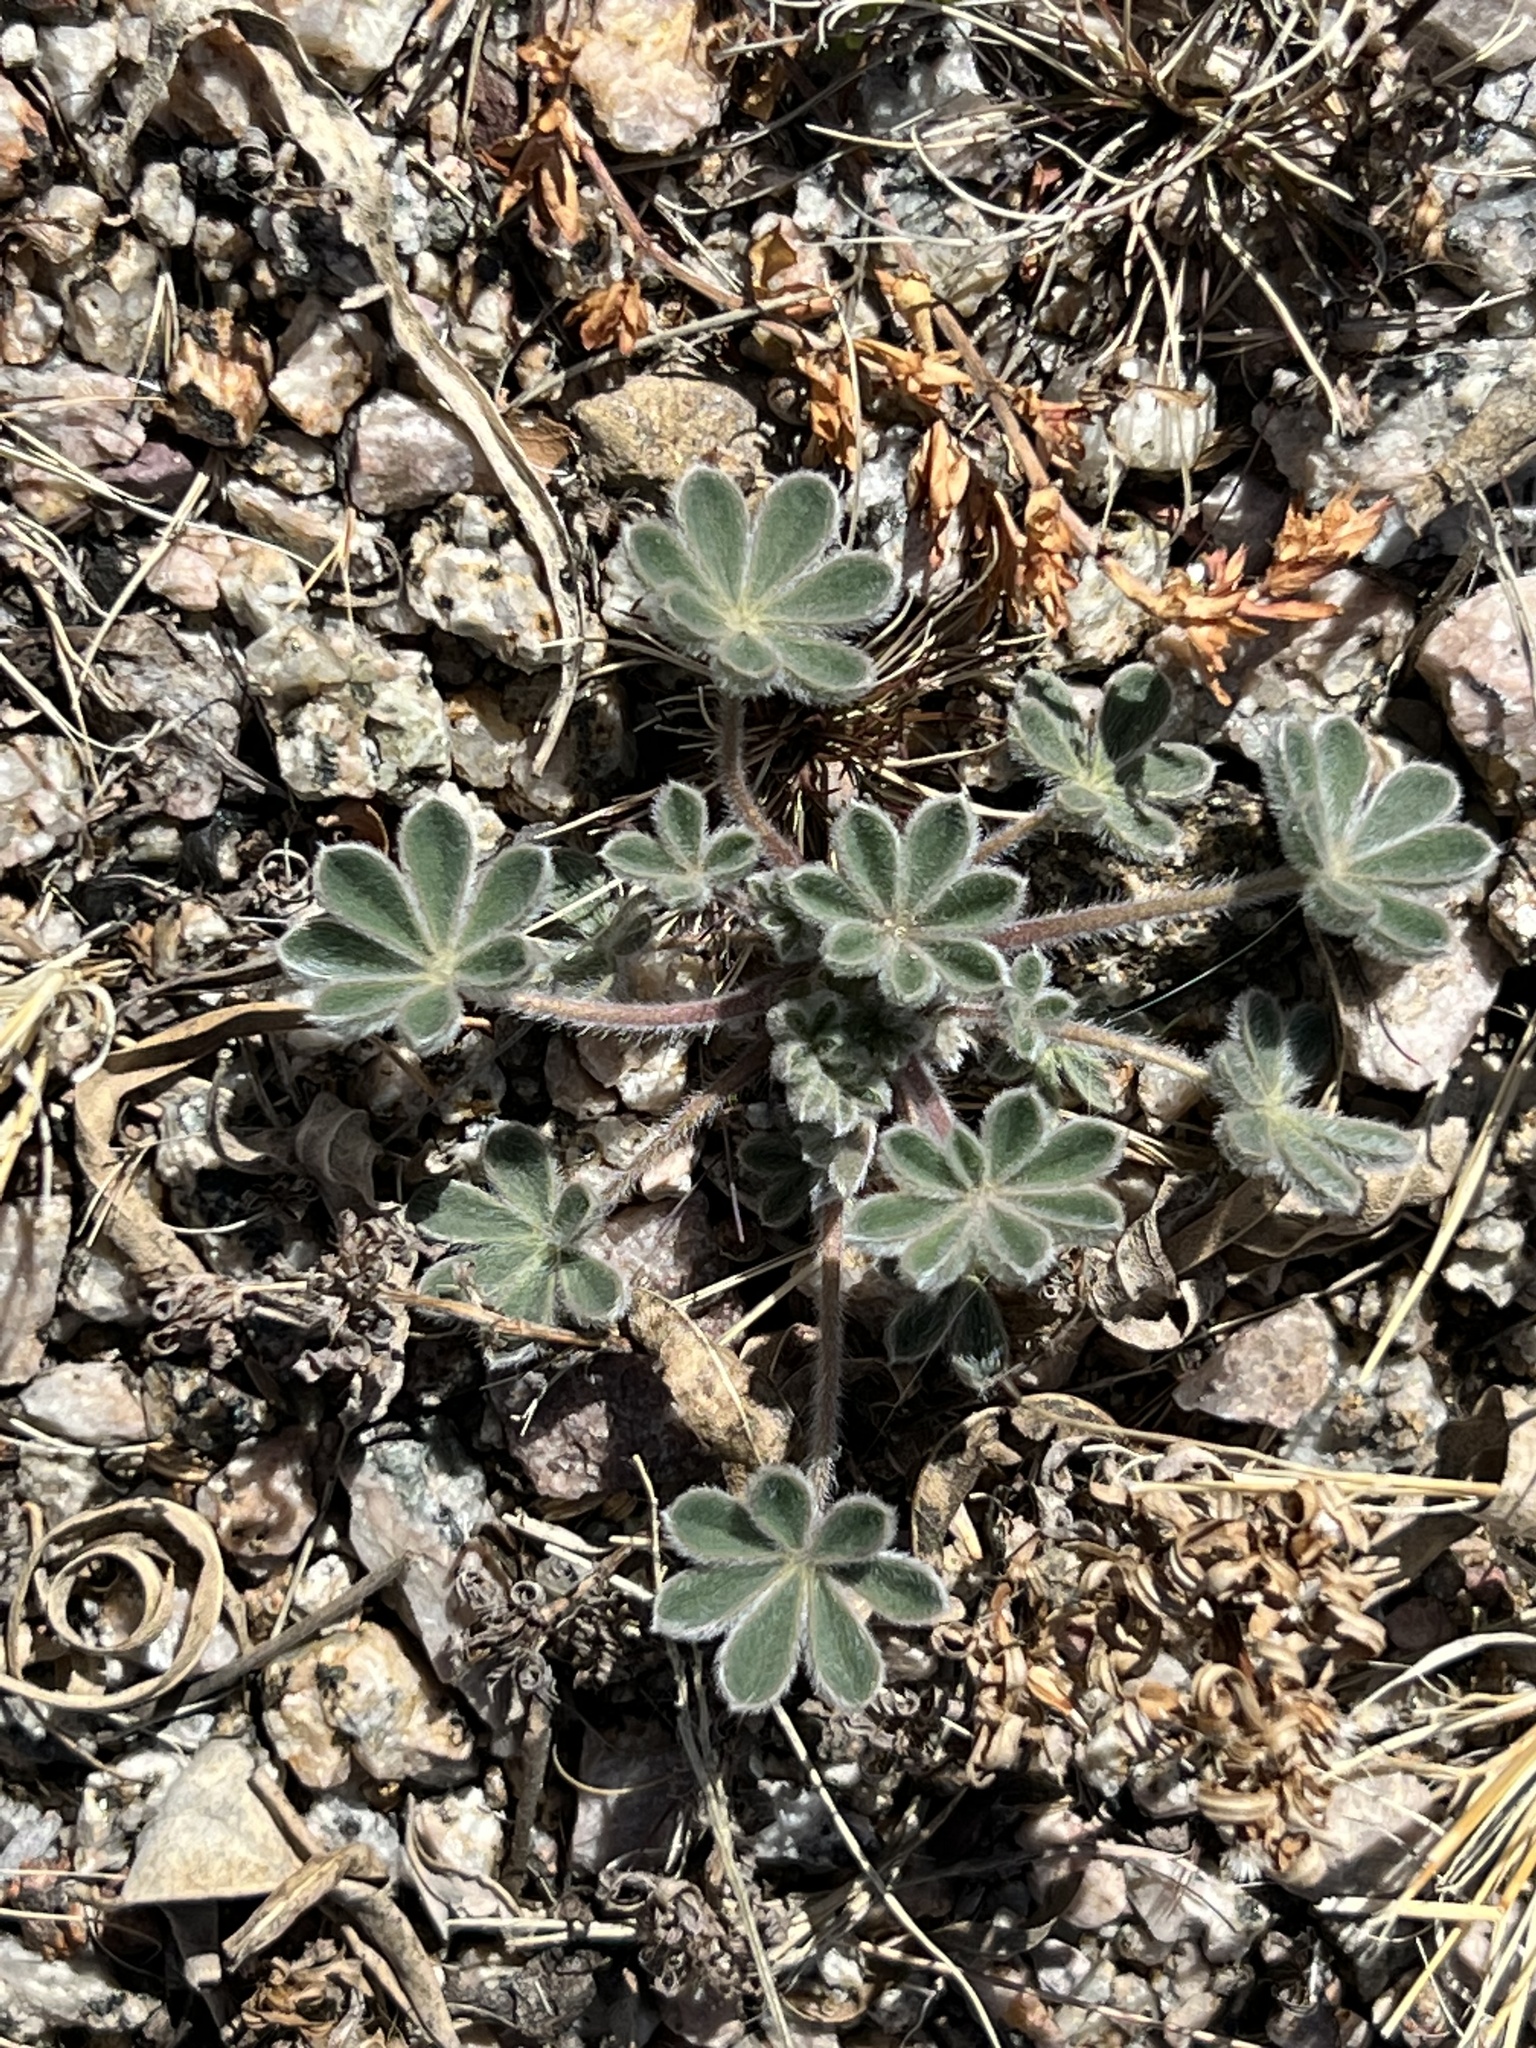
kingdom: Plantae
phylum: Tracheophyta
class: Magnoliopsida
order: Fabales
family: Fabaceae
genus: Lupinus
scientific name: Lupinus concinnus
